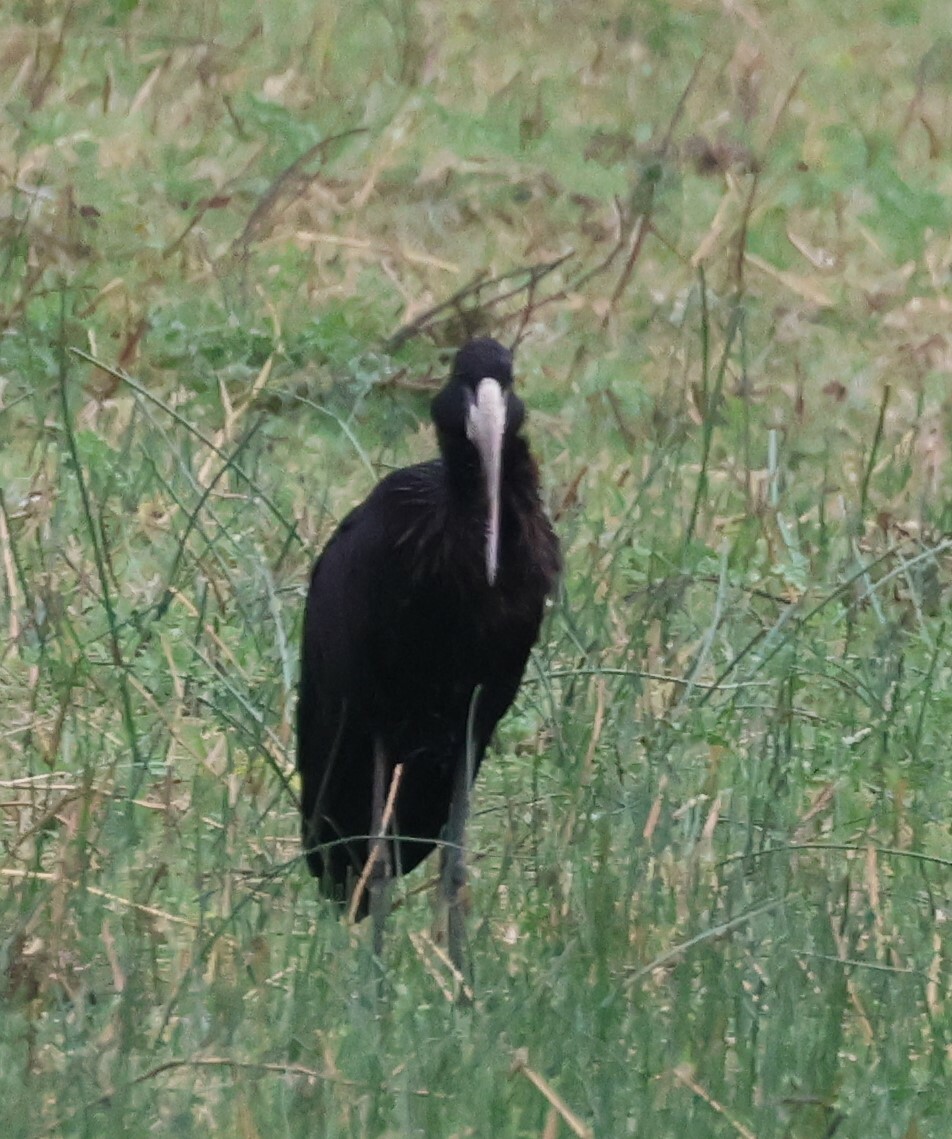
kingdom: Animalia
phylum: Chordata
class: Aves
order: Ciconiiformes
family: Ciconiidae
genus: Anastomus
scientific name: Anastomus lamelligerus
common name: African openbill
